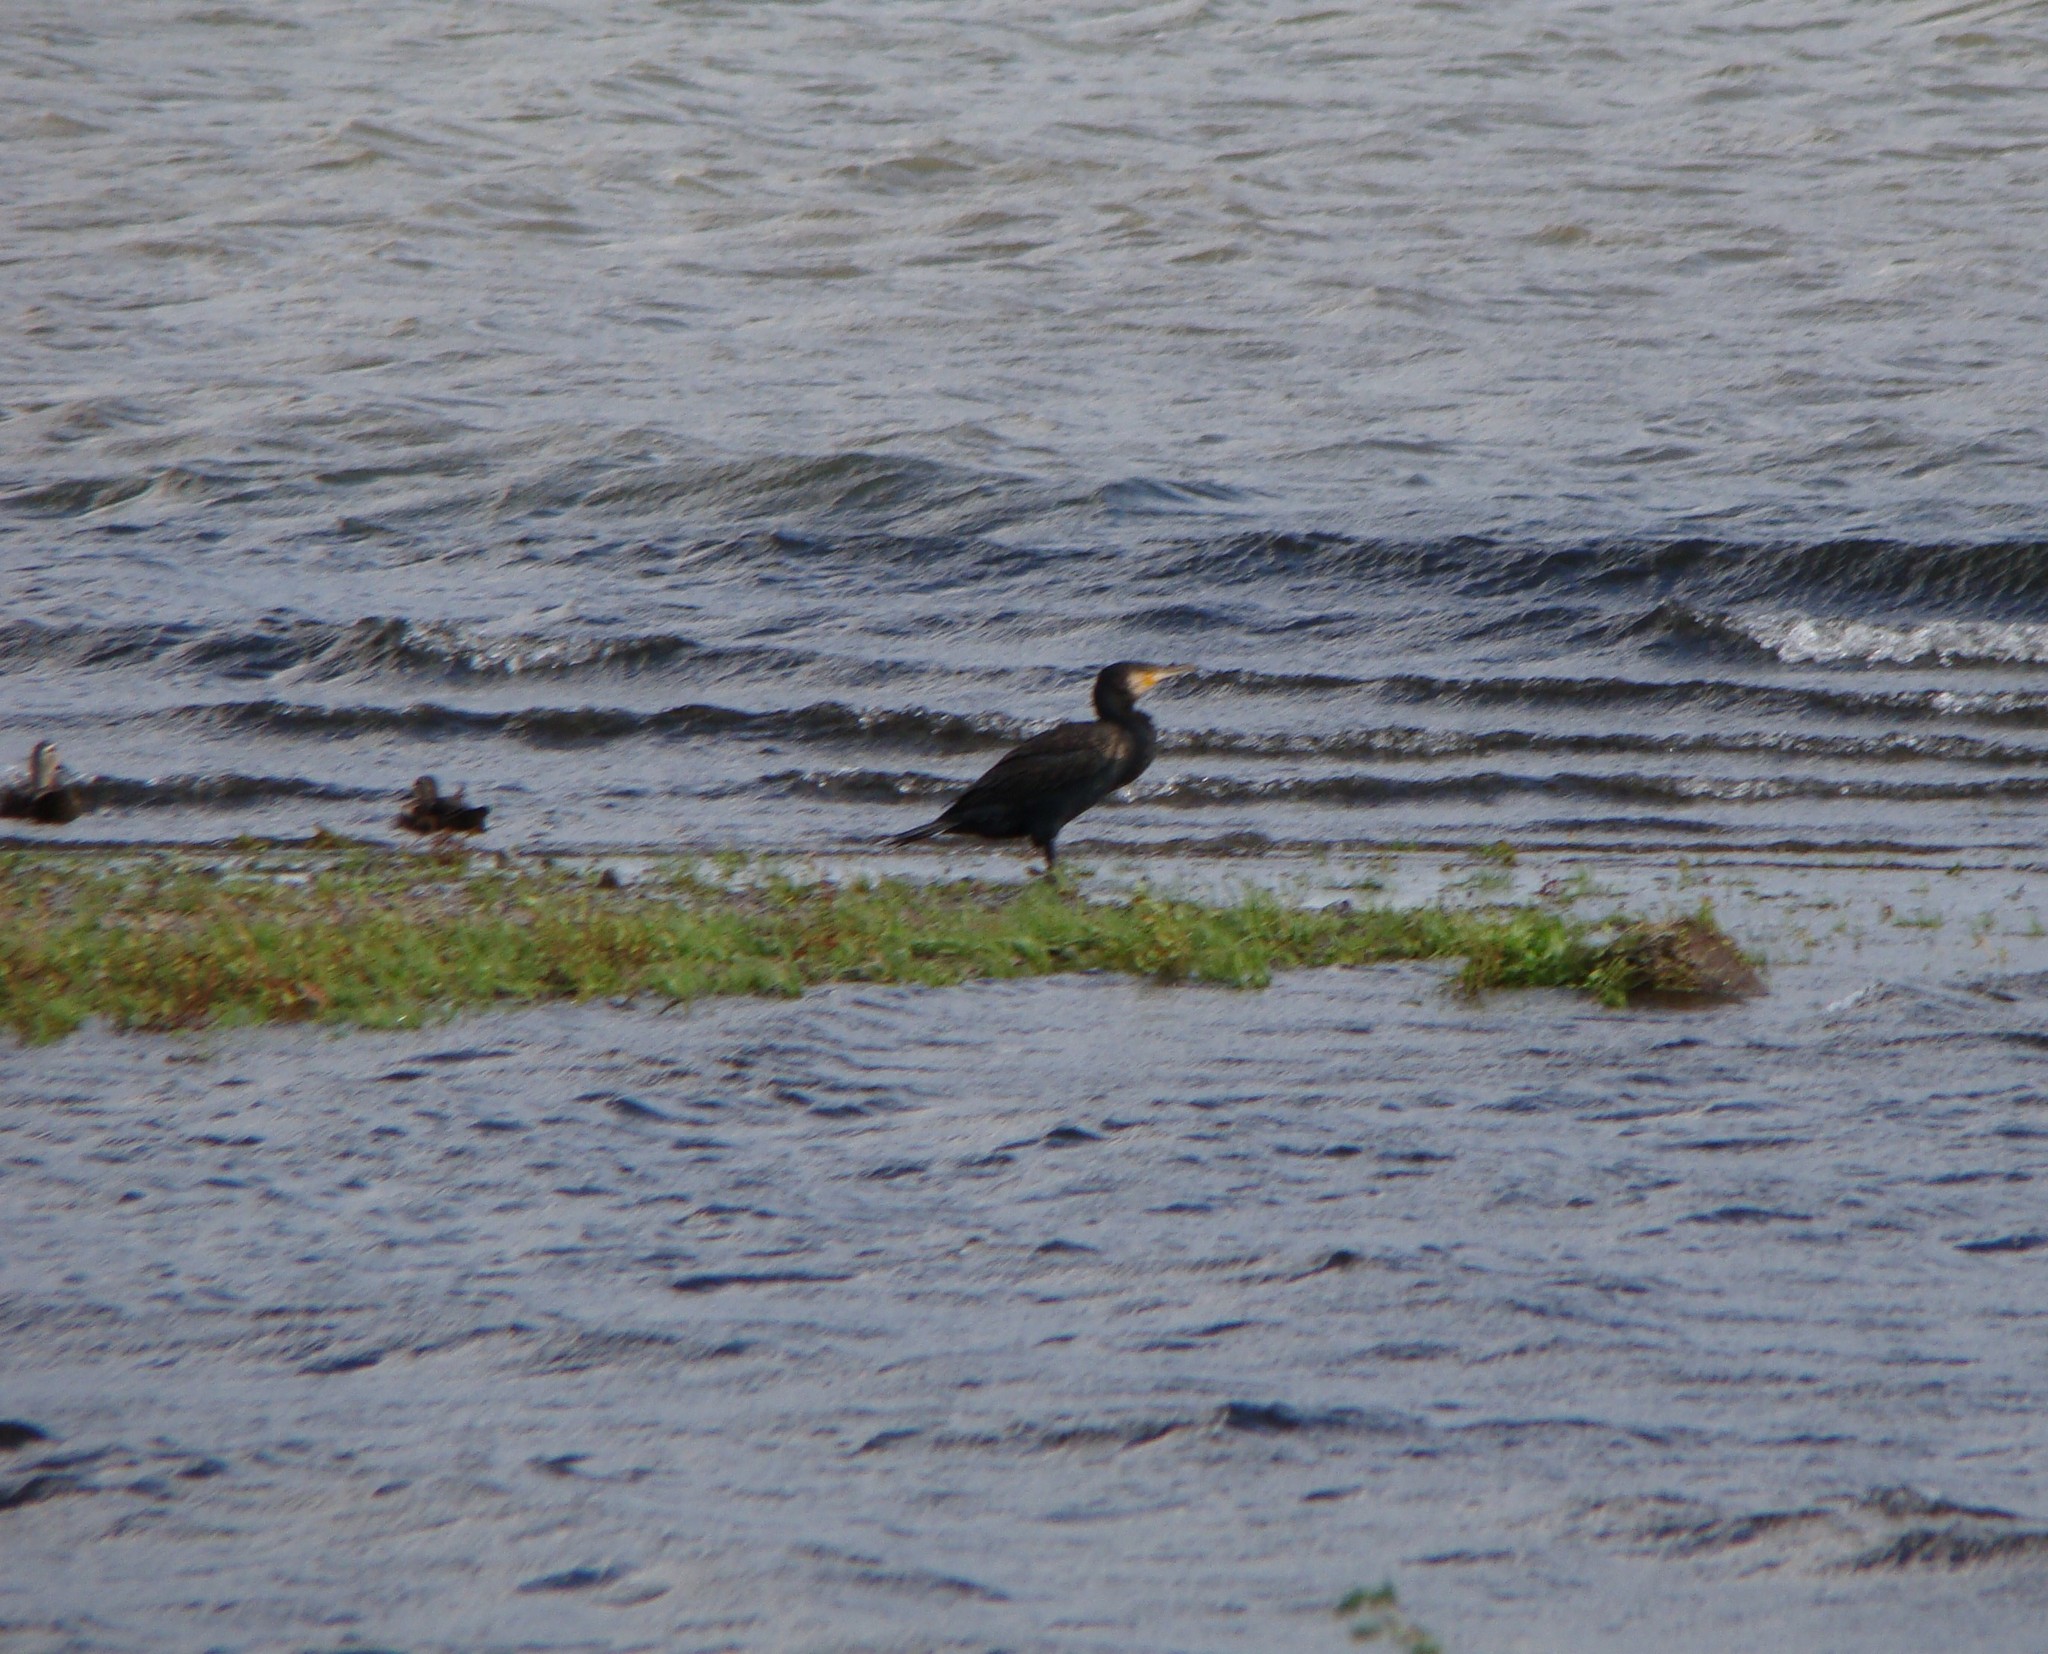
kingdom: Animalia
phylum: Chordata
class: Aves
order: Suliformes
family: Phalacrocoracidae
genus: Phalacrocorax
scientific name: Phalacrocorax carbo
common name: Great cormorant
